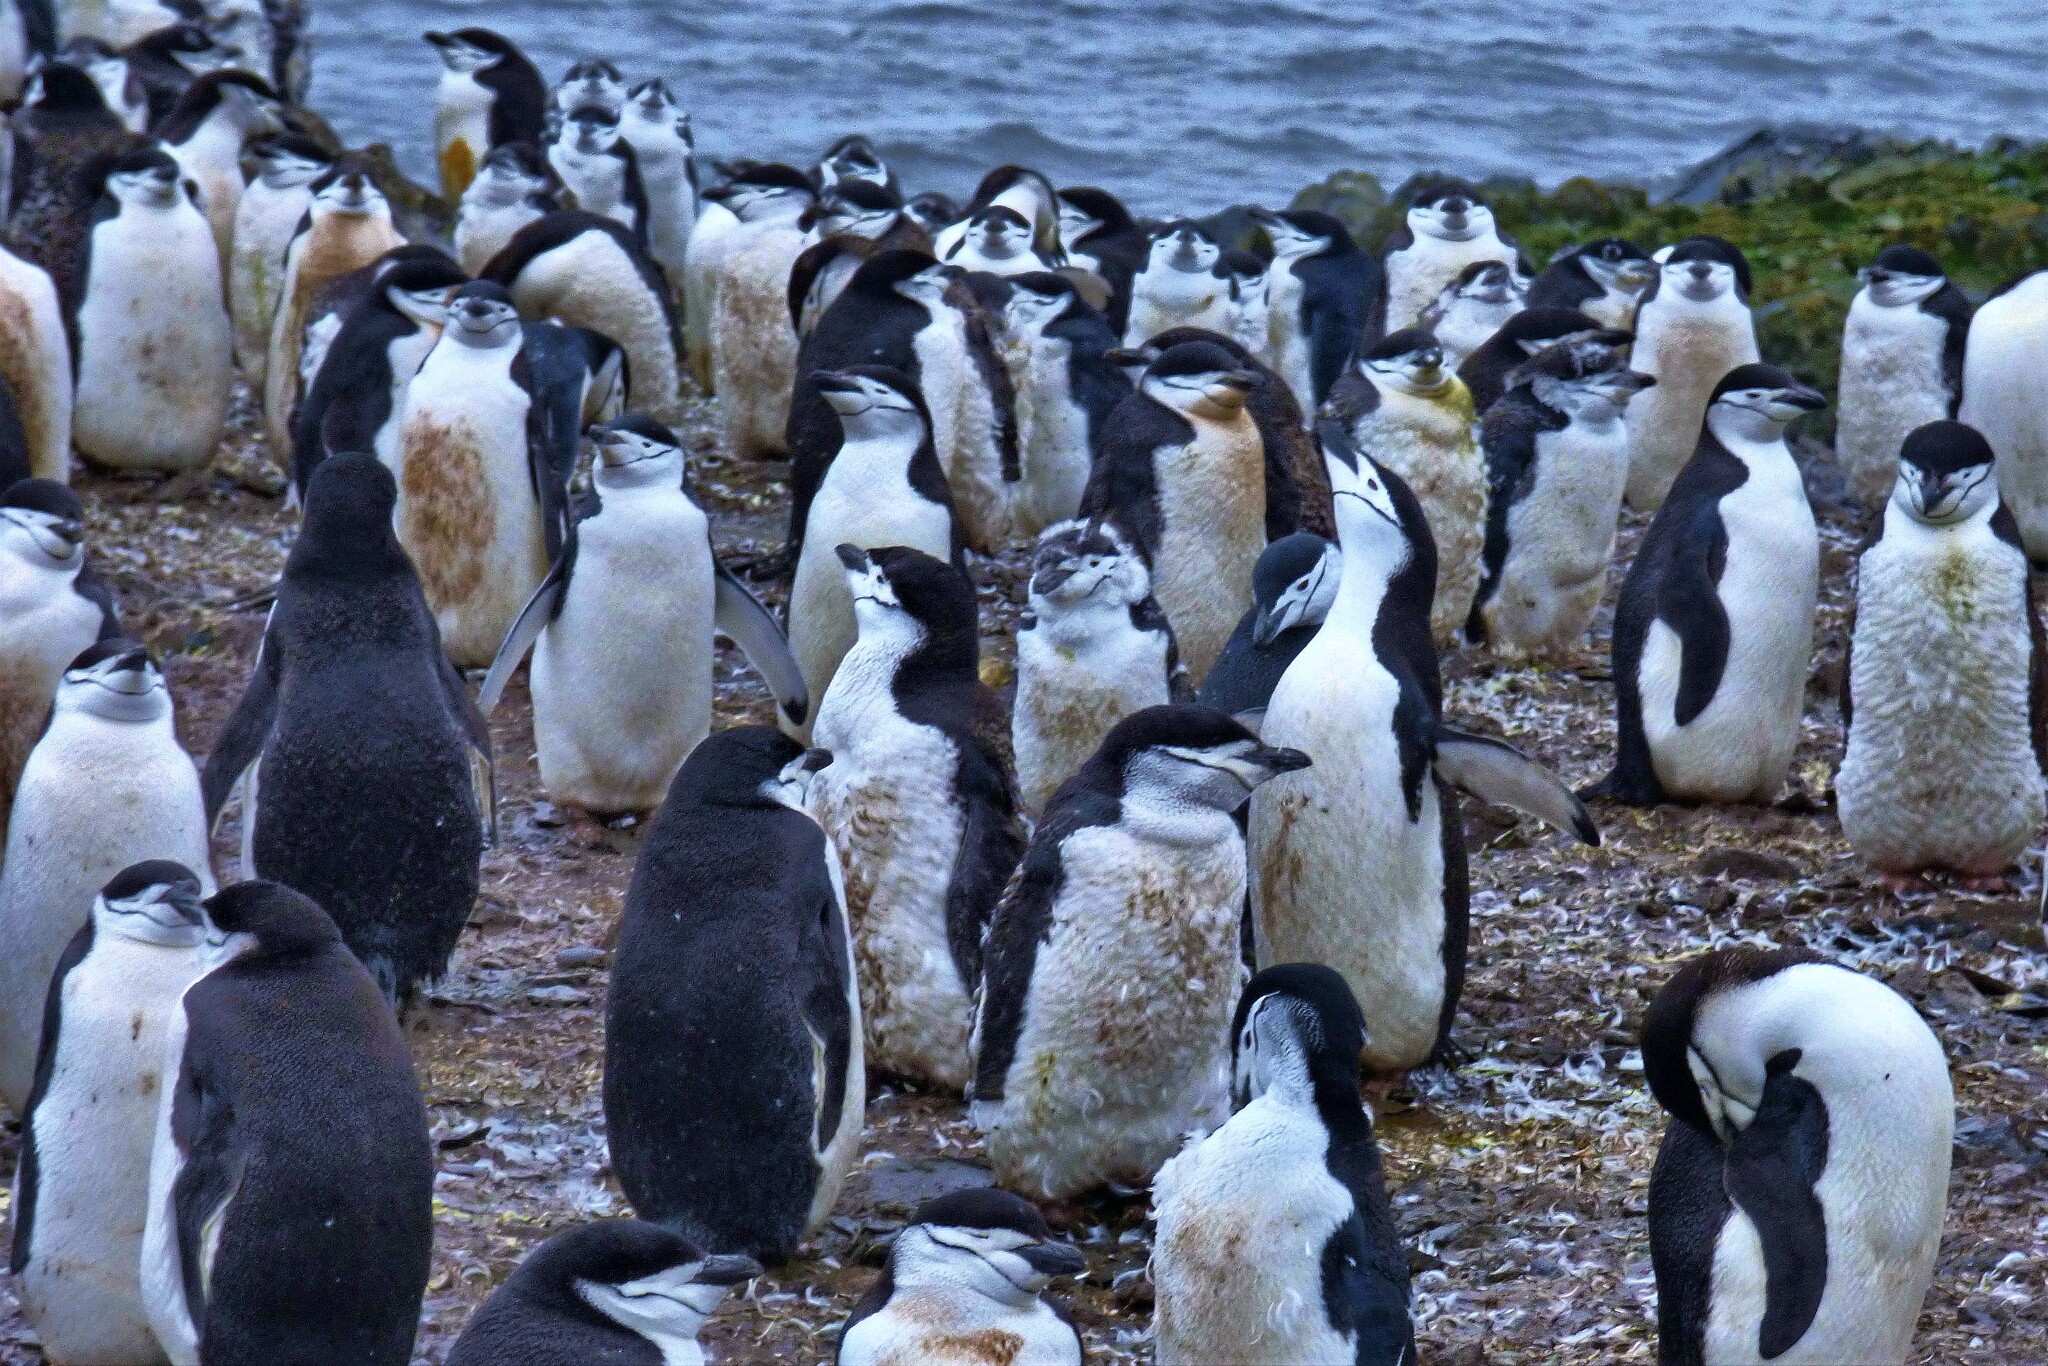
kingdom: Animalia
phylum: Chordata
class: Aves
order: Sphenisciformes
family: Spheniscidae
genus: Pygoscelis
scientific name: Pygoscelis antarcticus
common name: Chinstrap penguin
